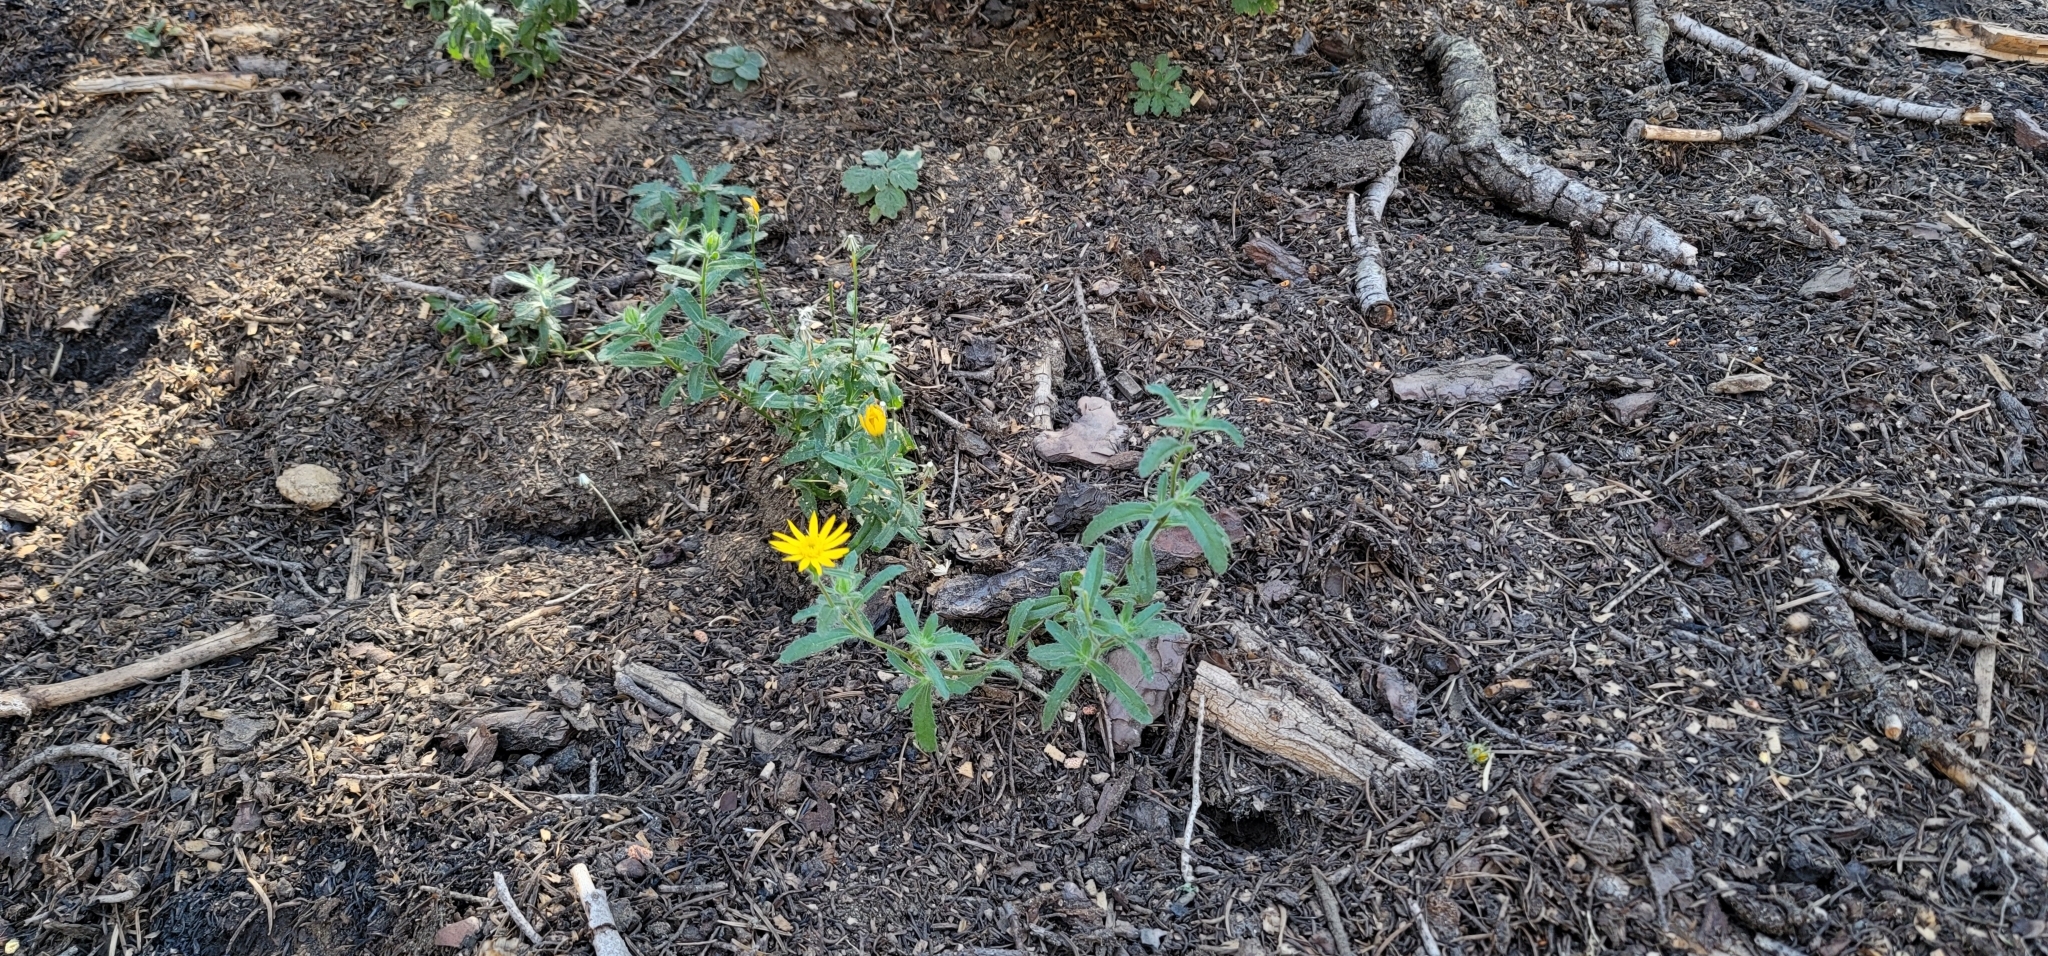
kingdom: Plantae
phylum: Tracheophyta
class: Magnoliopsida
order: Asterales
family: Asteraceae
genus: Hulsea
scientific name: Hulsea brevifolia
